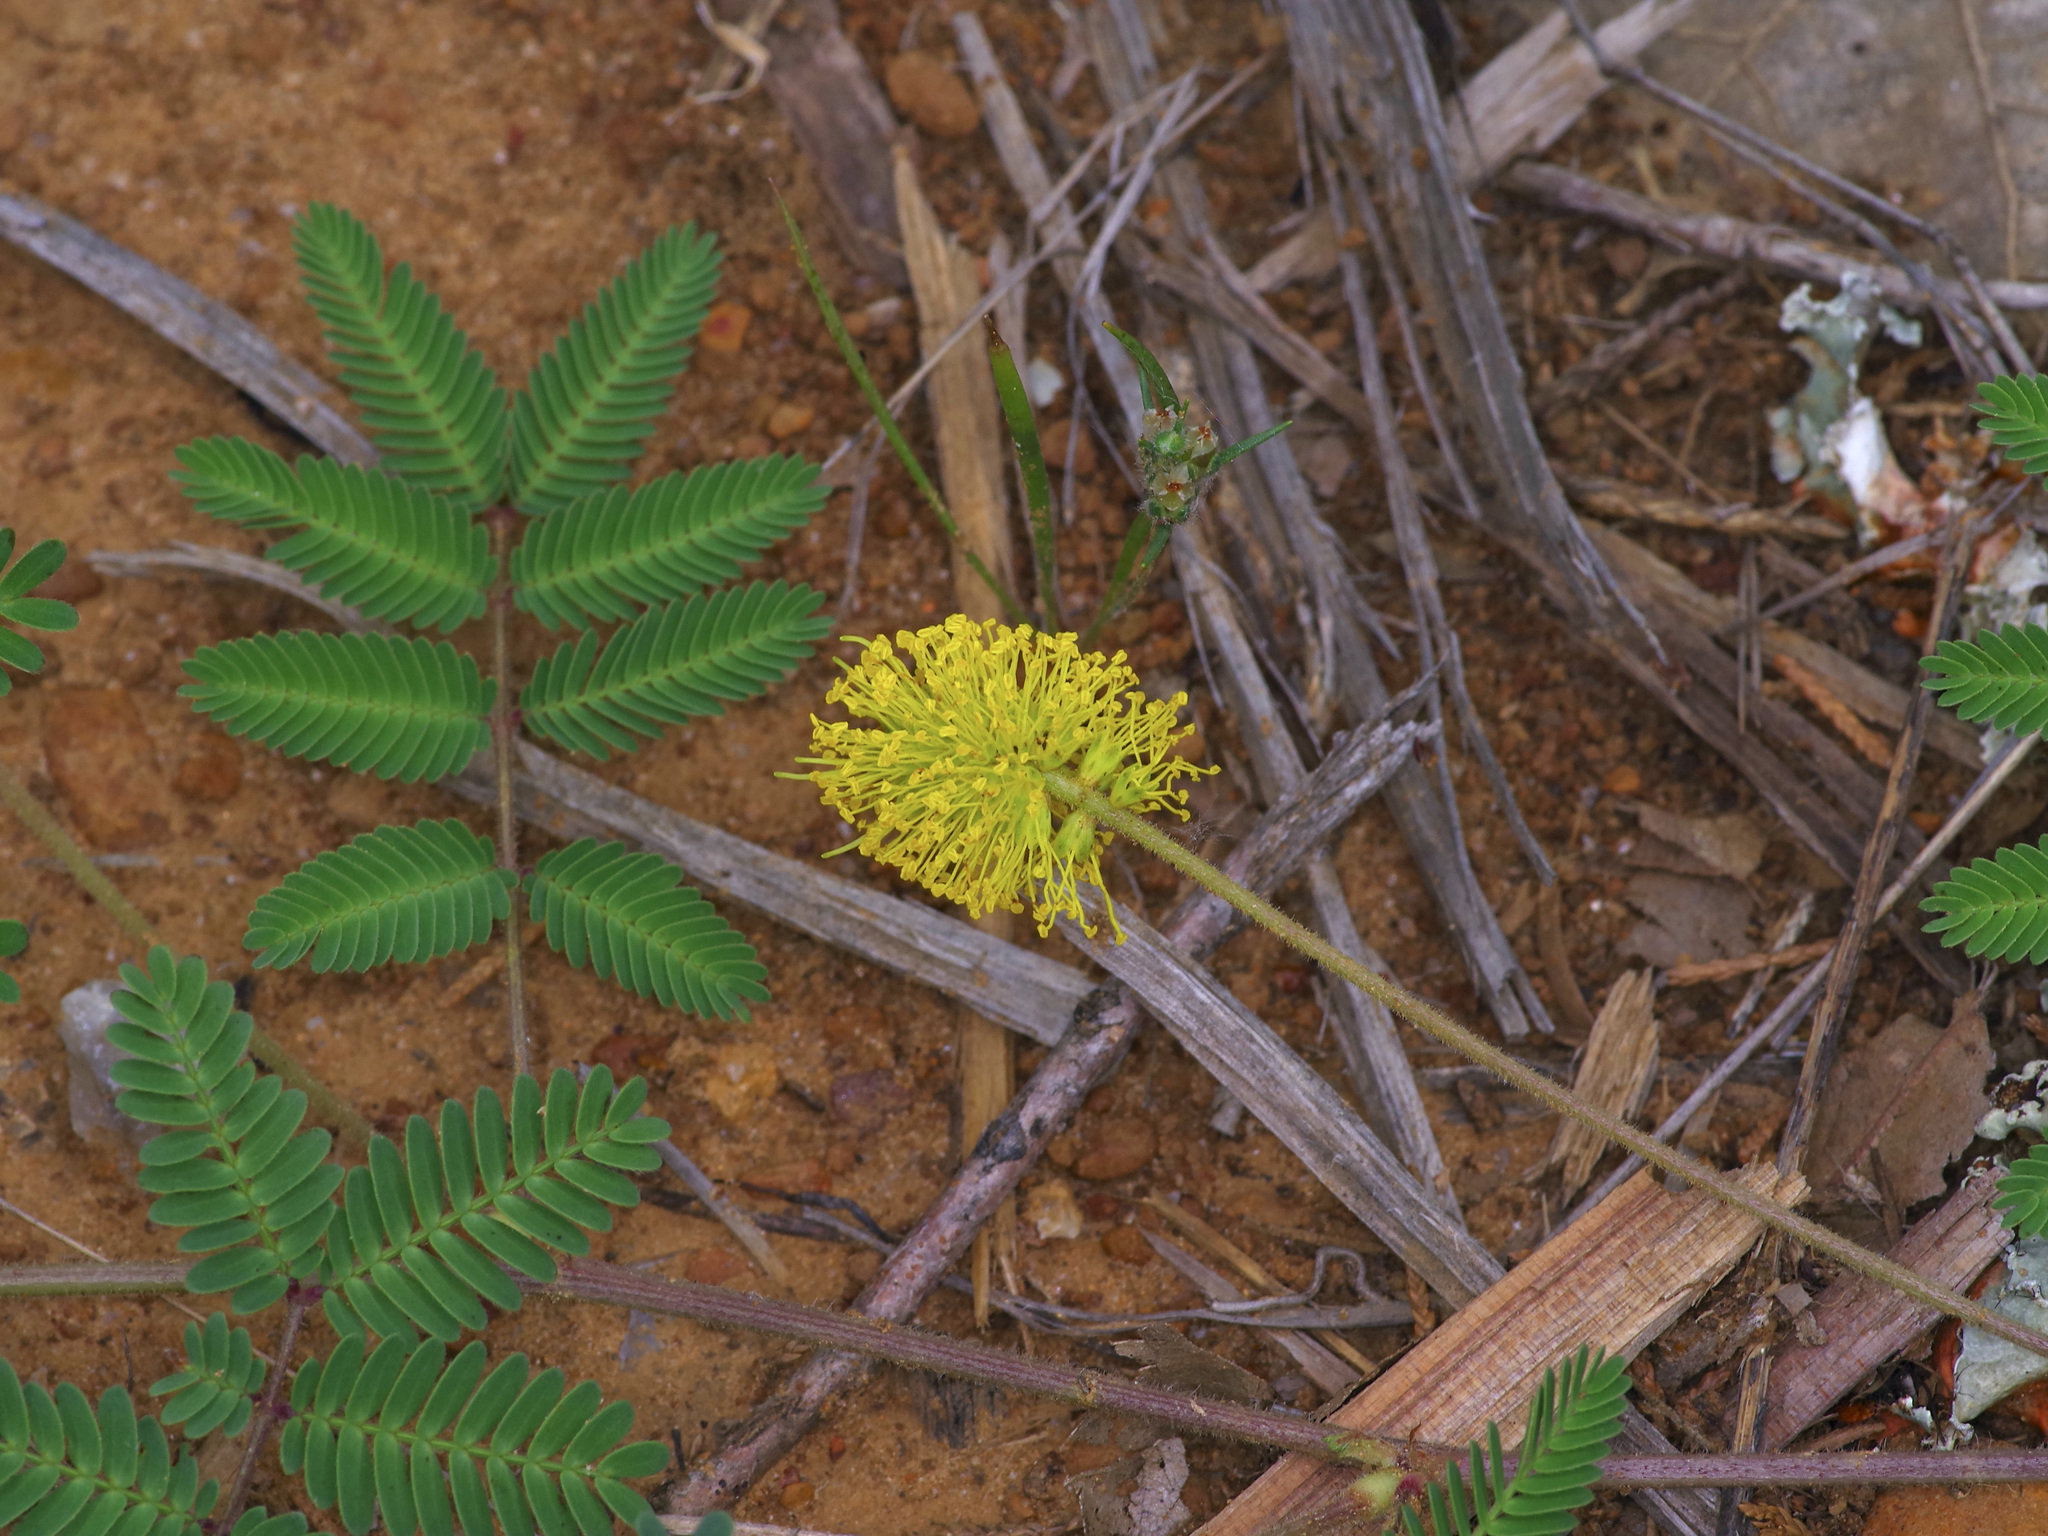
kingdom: Plantae
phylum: Tracheophyta
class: Magnoliopsida
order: Fabales
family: Fabaceae
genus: Neptunia
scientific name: Neptunia lutea
